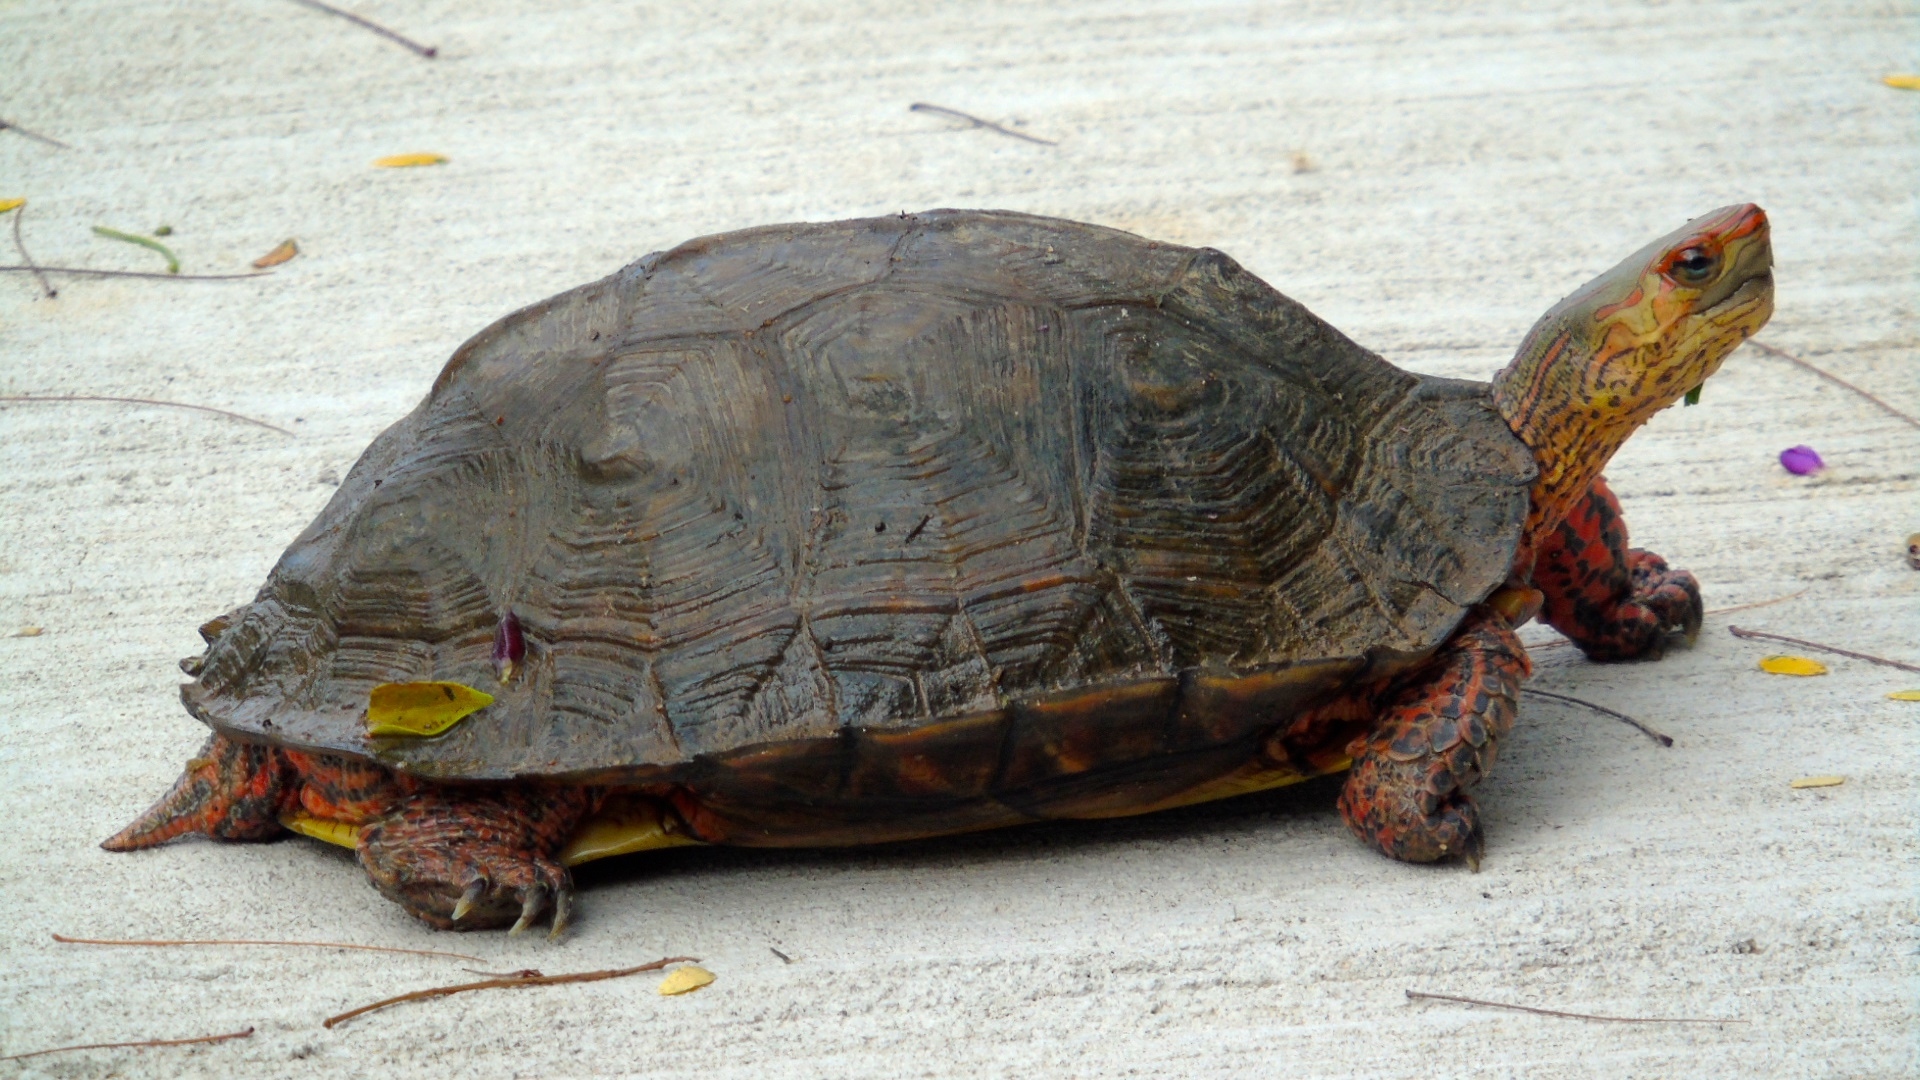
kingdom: Animalia
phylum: Chordata
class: Testudines
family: Geoemydidae
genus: Rhinoclemmys
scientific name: Rhinoclemmys pulcherrima
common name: Painted wood turtle
